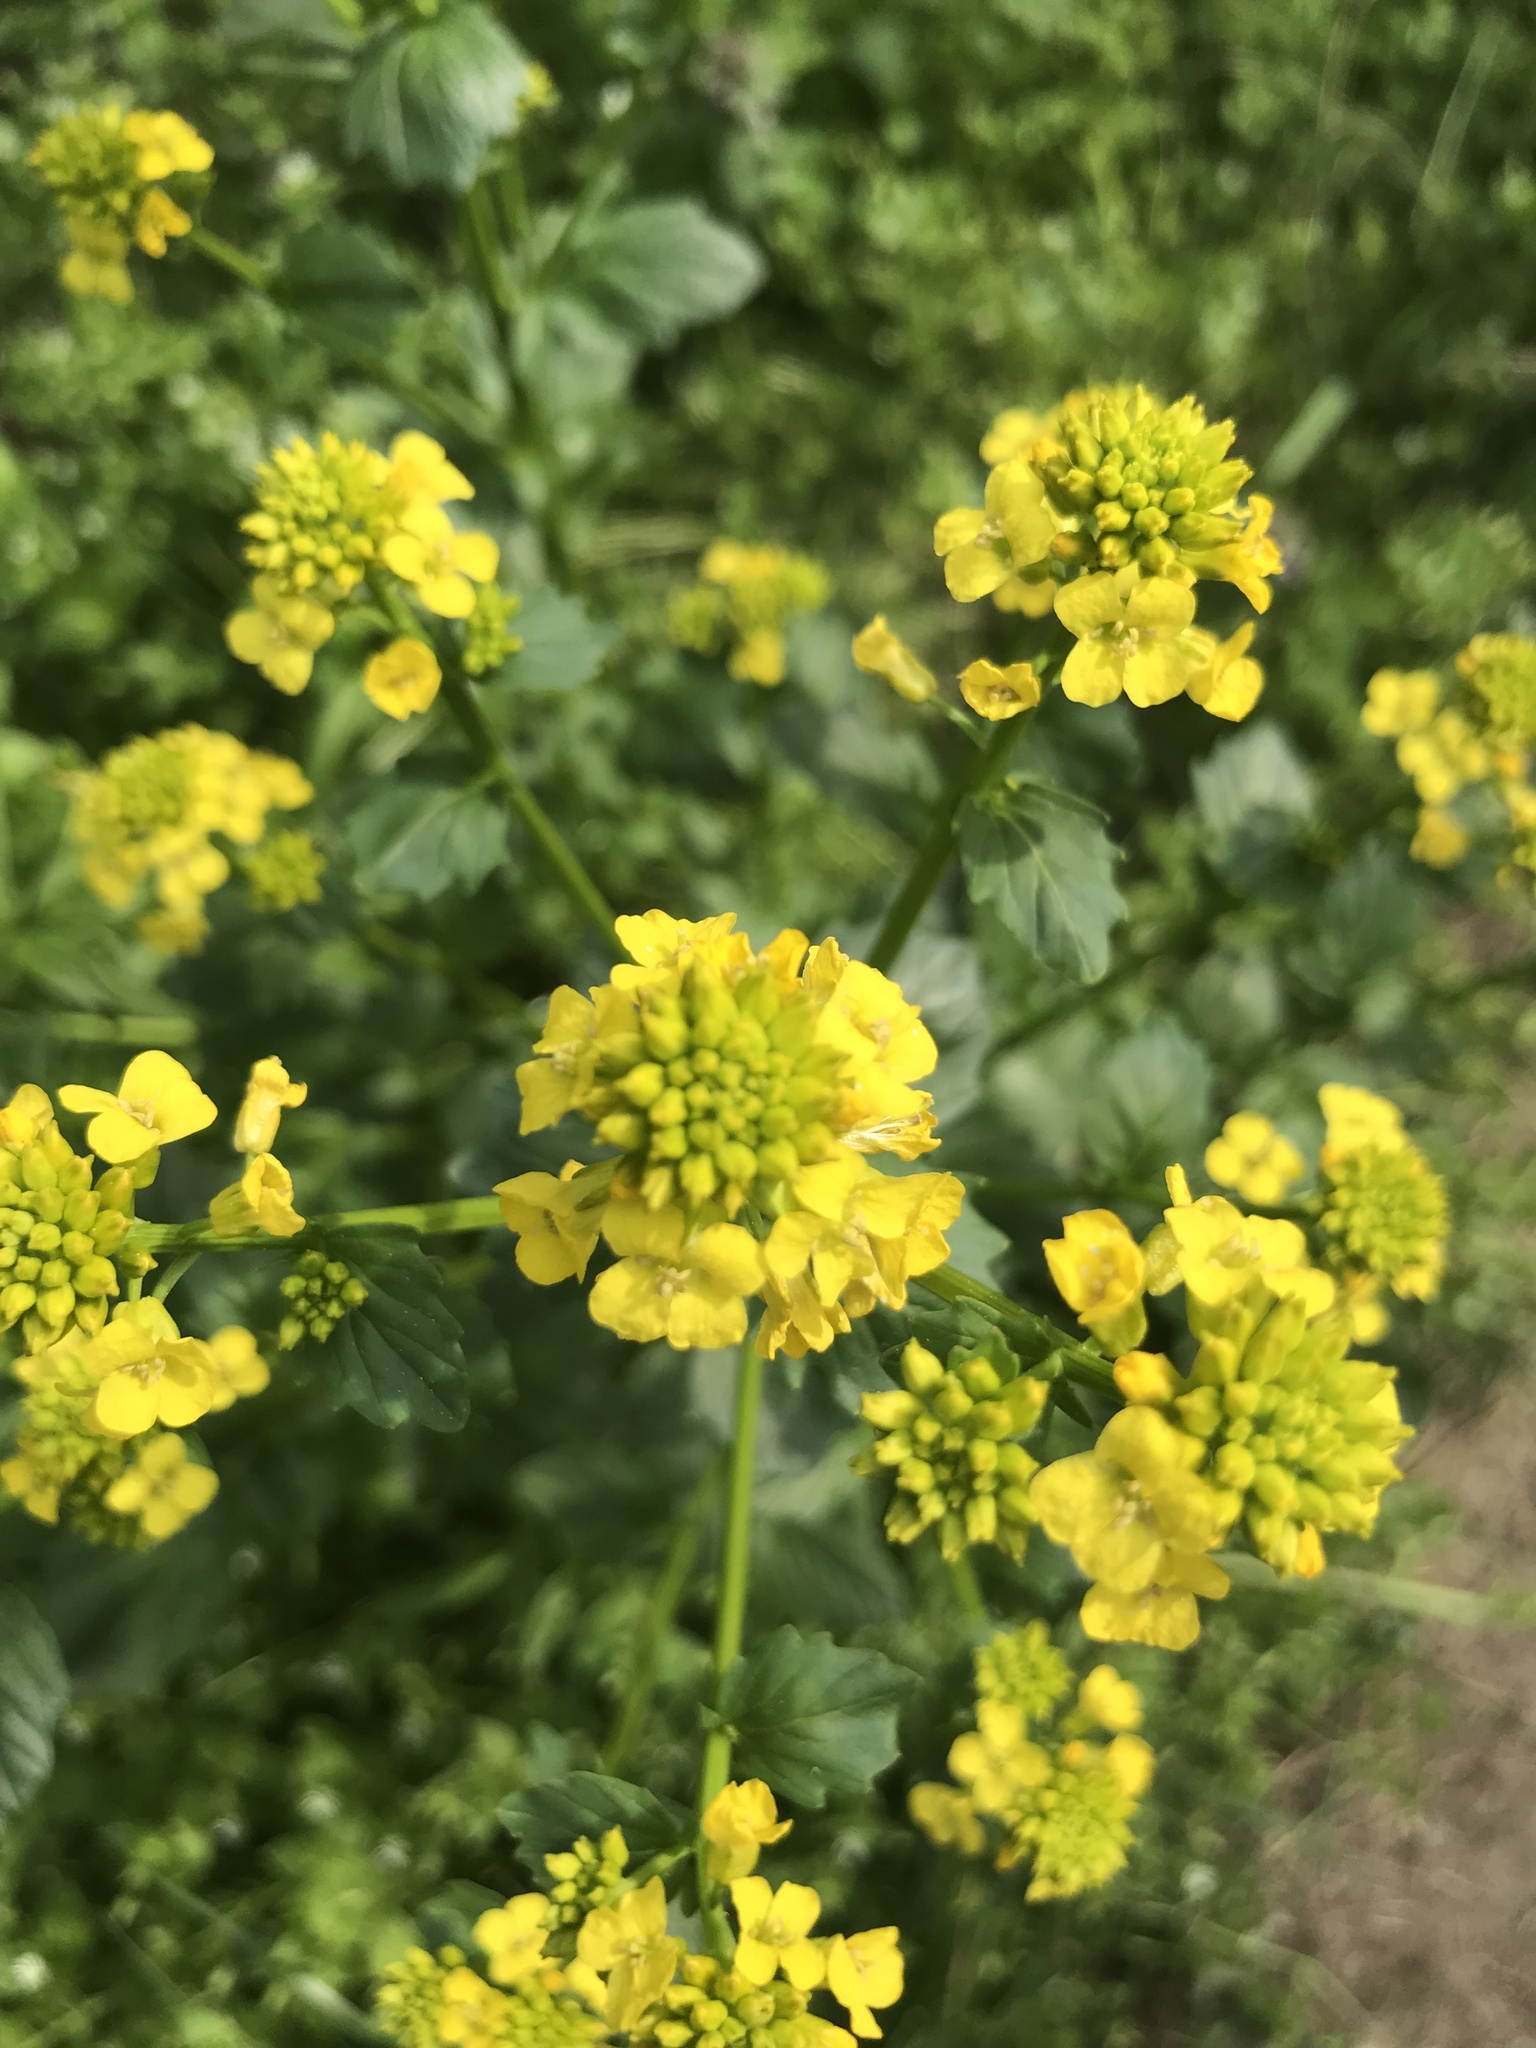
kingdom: Plantae
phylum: Tracheophyta
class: Magnoliopsida
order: Brassicales
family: Brassicaceae
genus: Barbarea
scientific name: Barbarea vulgaris
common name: Cressy-greens
